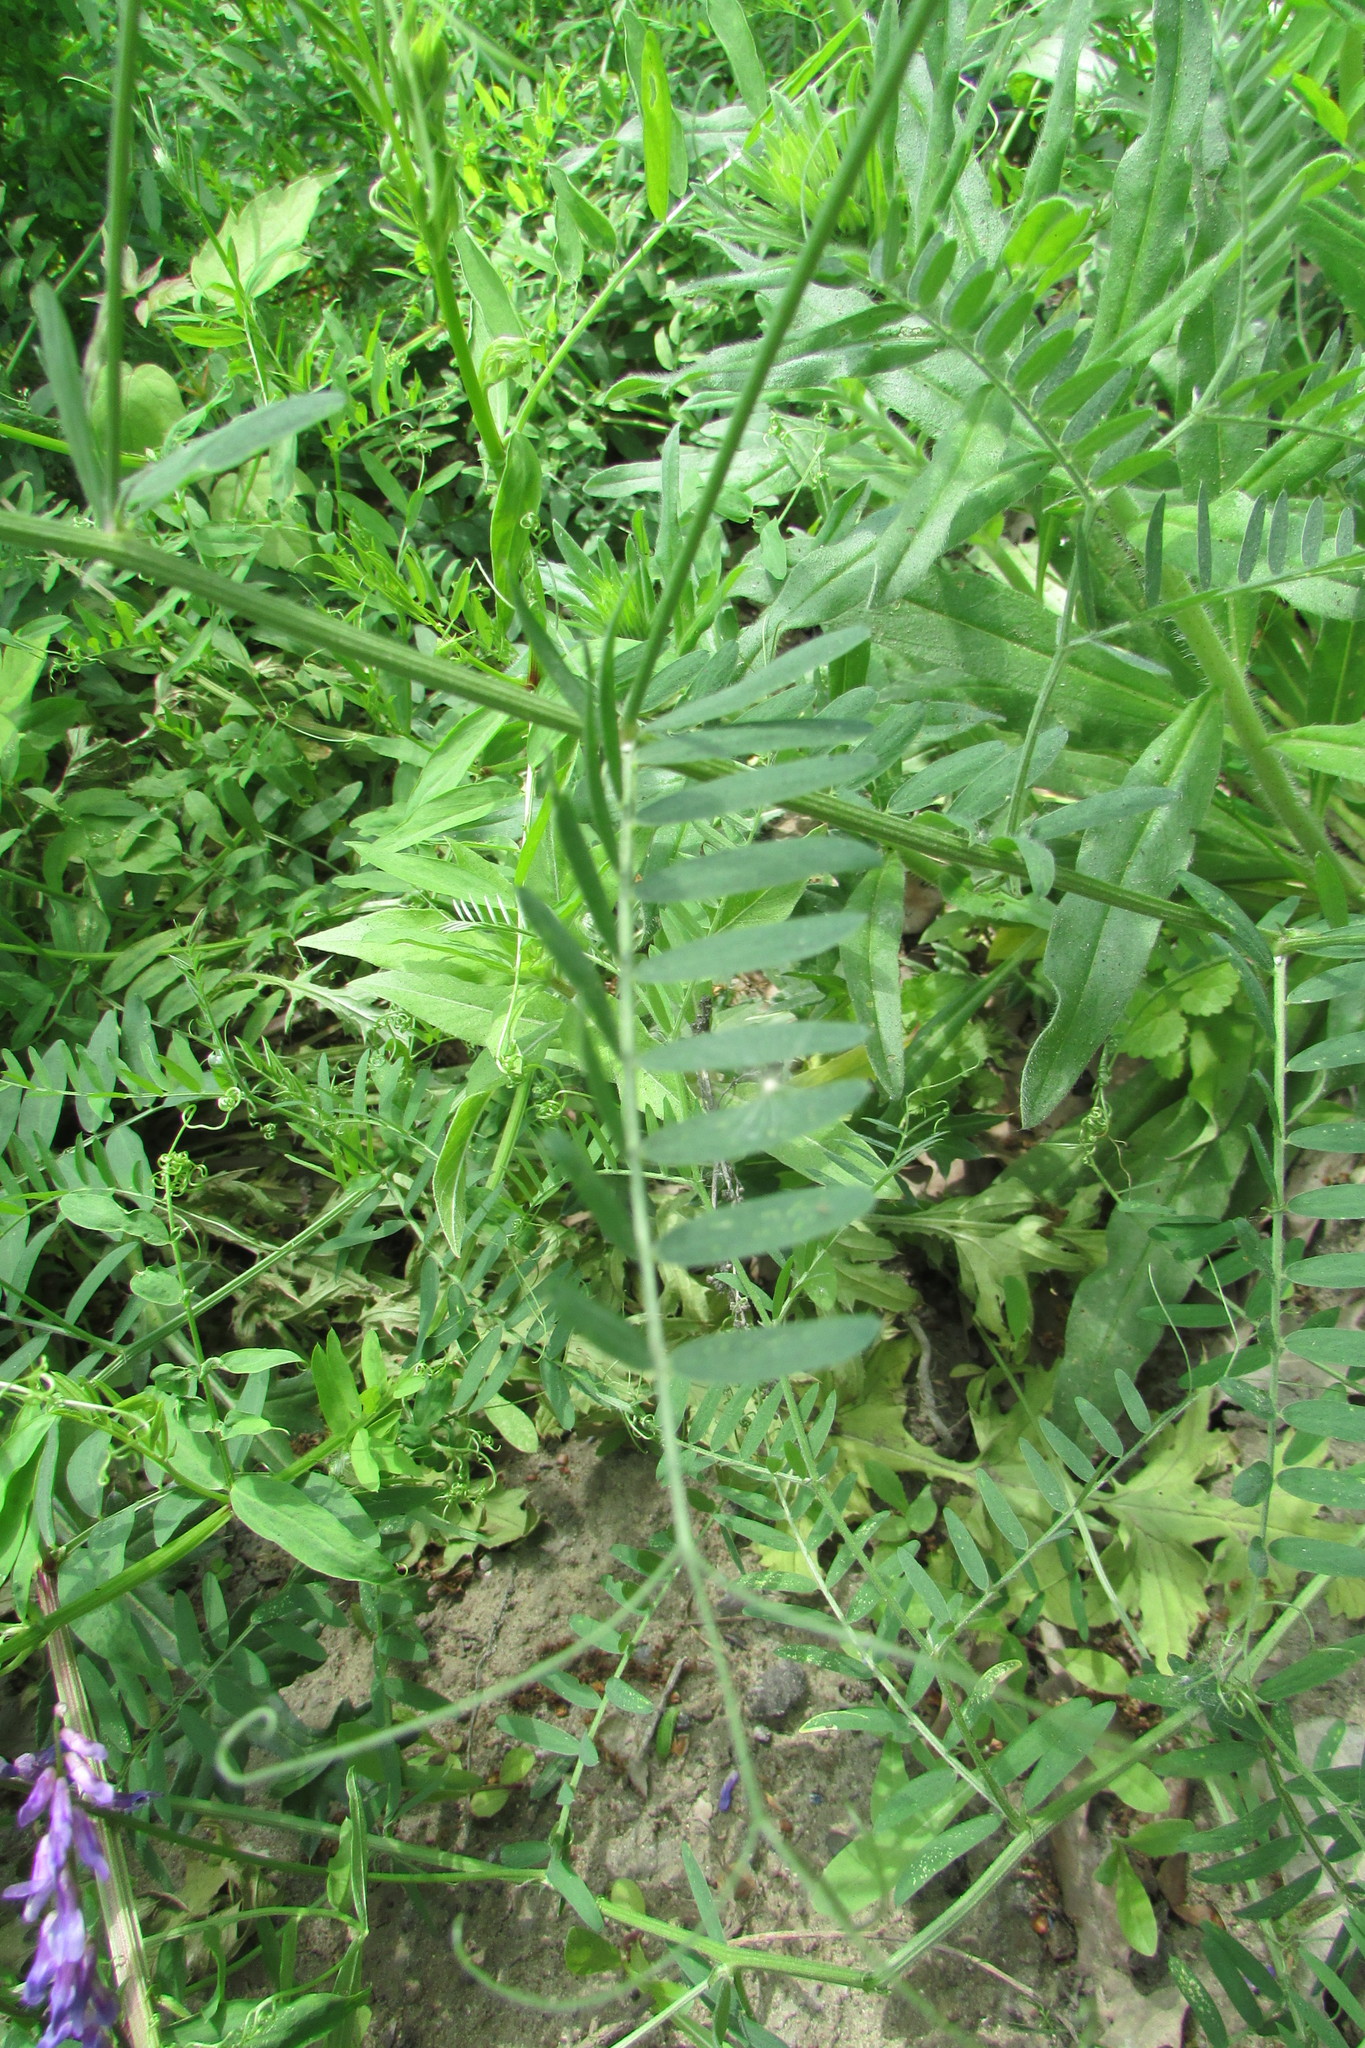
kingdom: Plantae
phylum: Tracheophyta
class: Magnoliopsida
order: Fabales
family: Fabaceae
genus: Vicia
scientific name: Vicia tenuifolia
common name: Fine-leaved vetch
